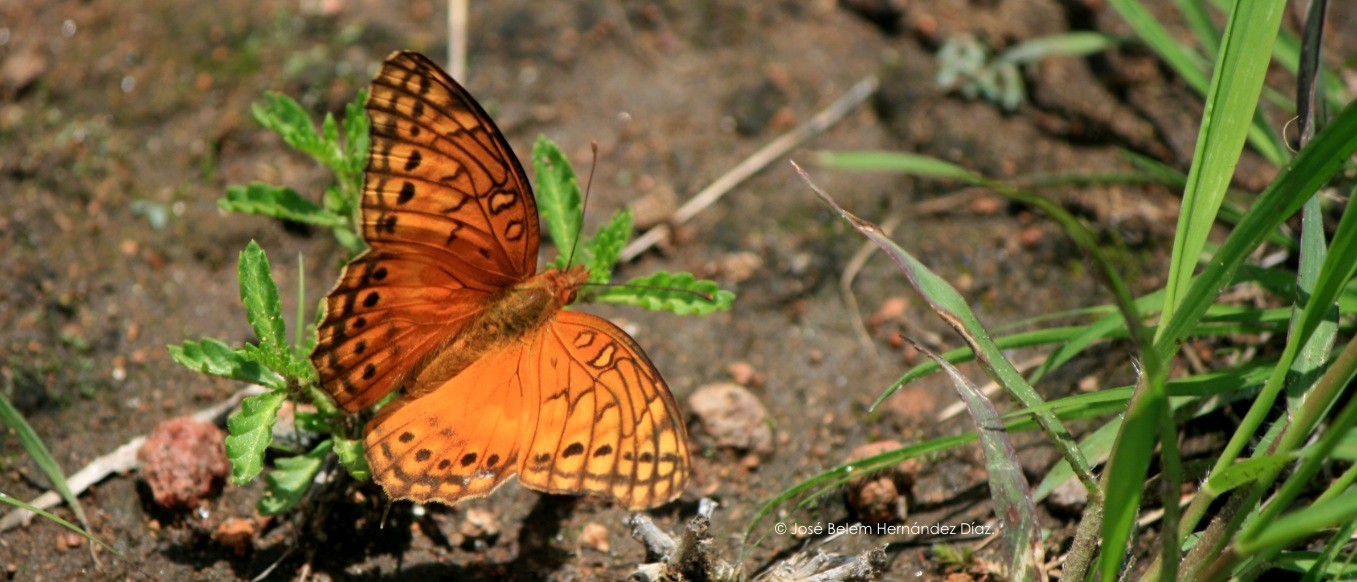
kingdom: Animalia
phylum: Arthropoda
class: Insecta
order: Lepidoptera
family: Nymphalidae
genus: Euptoieta
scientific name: Euptoieta hegesia
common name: Mexican fritillary
